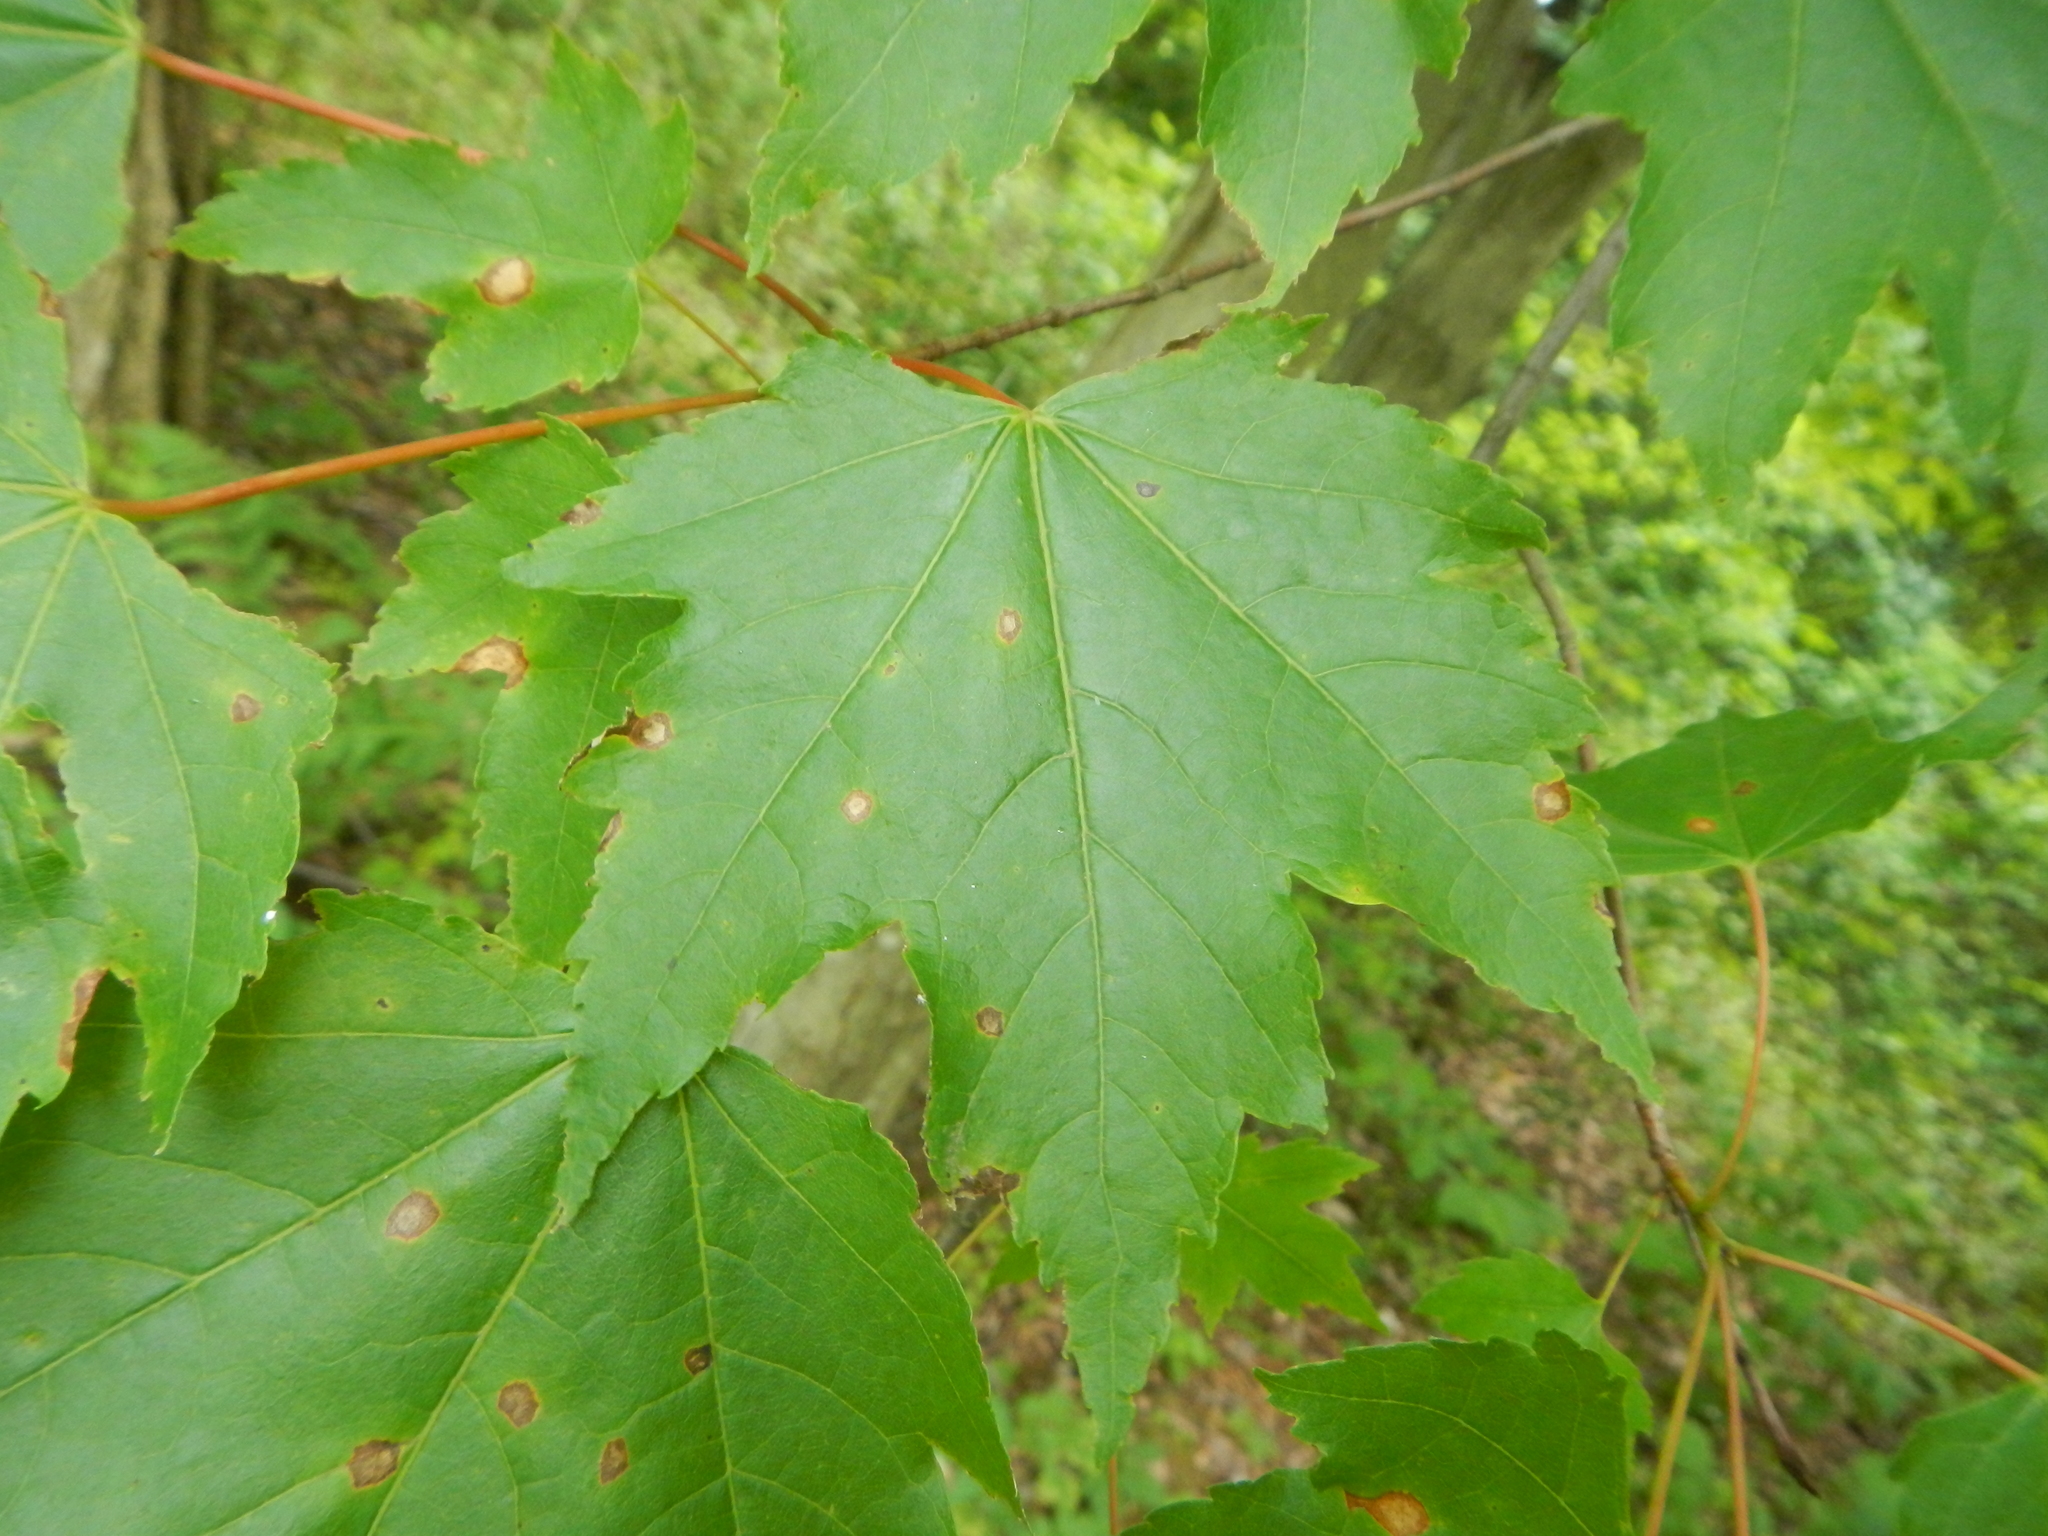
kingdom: Plantae
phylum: Tracheophyta
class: Magnoliopsida
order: Sapindales
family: Sapindaceae
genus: Acer
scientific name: Acer rubrum
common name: Red maple
